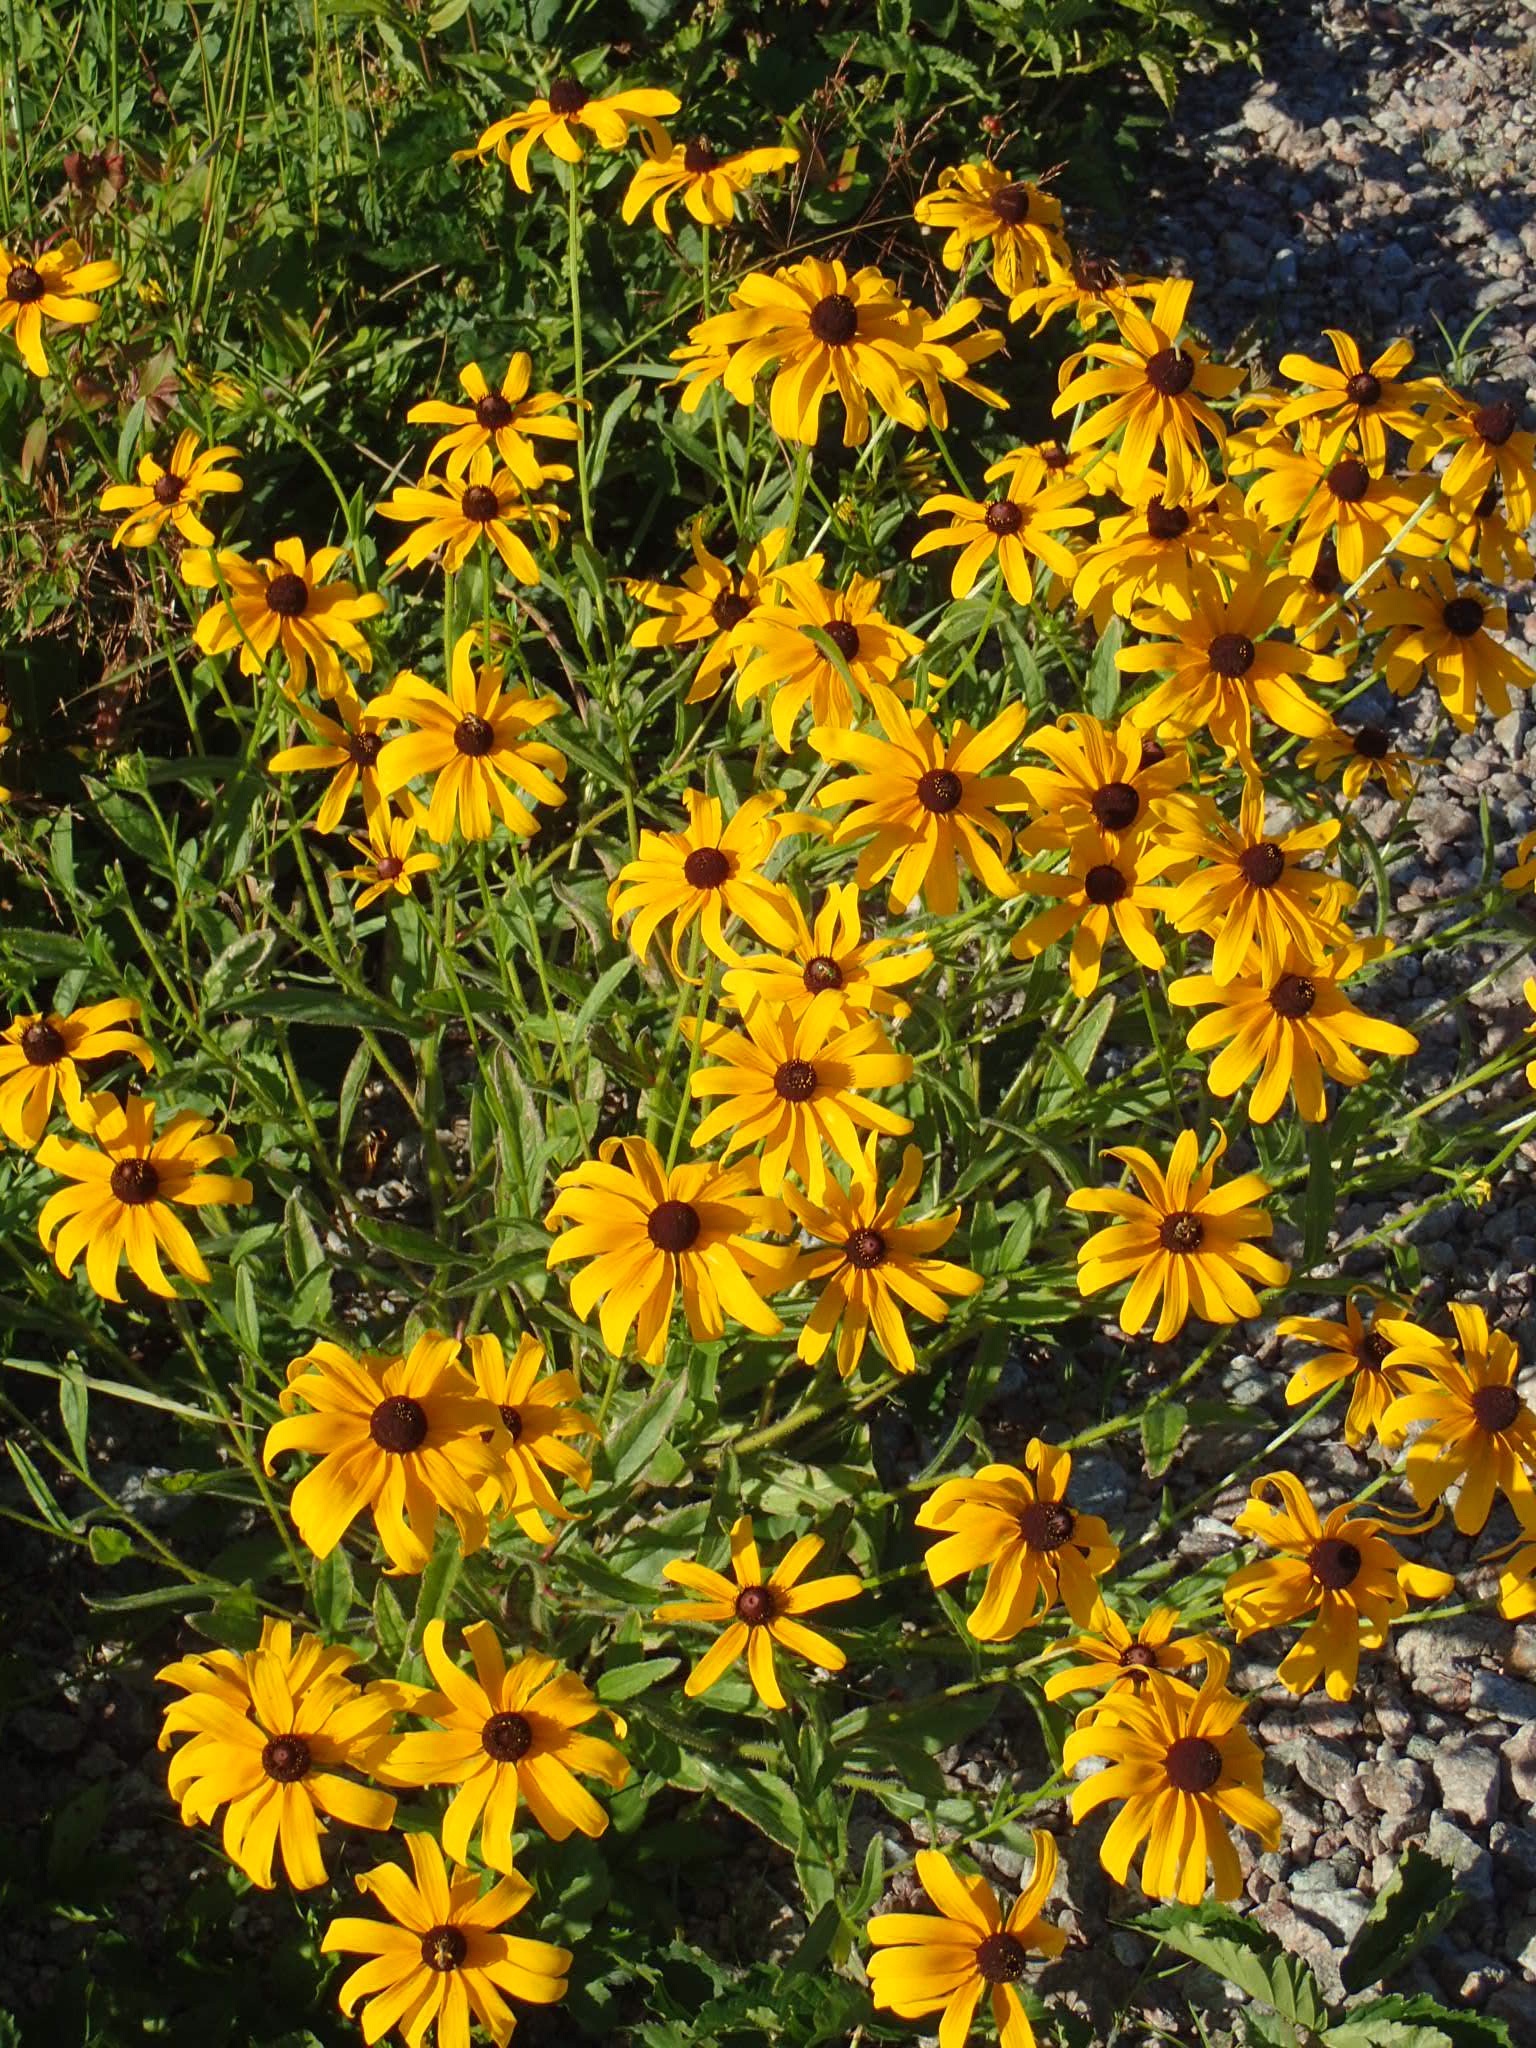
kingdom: Plantae
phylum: Tracheophyta
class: Magnoliopsida
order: Asterales
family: Asteraceae
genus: Rudbeckia
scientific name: Rudbeckia hirta
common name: Black-eyed-susan
